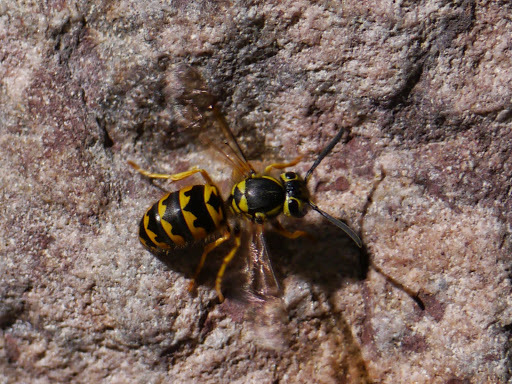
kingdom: Animalia
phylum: Arthropoda
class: Insecta
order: Hymenoptera
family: Vespidae
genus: Vespula
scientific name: Vespula pensylvanica
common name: Western yellowjacket
